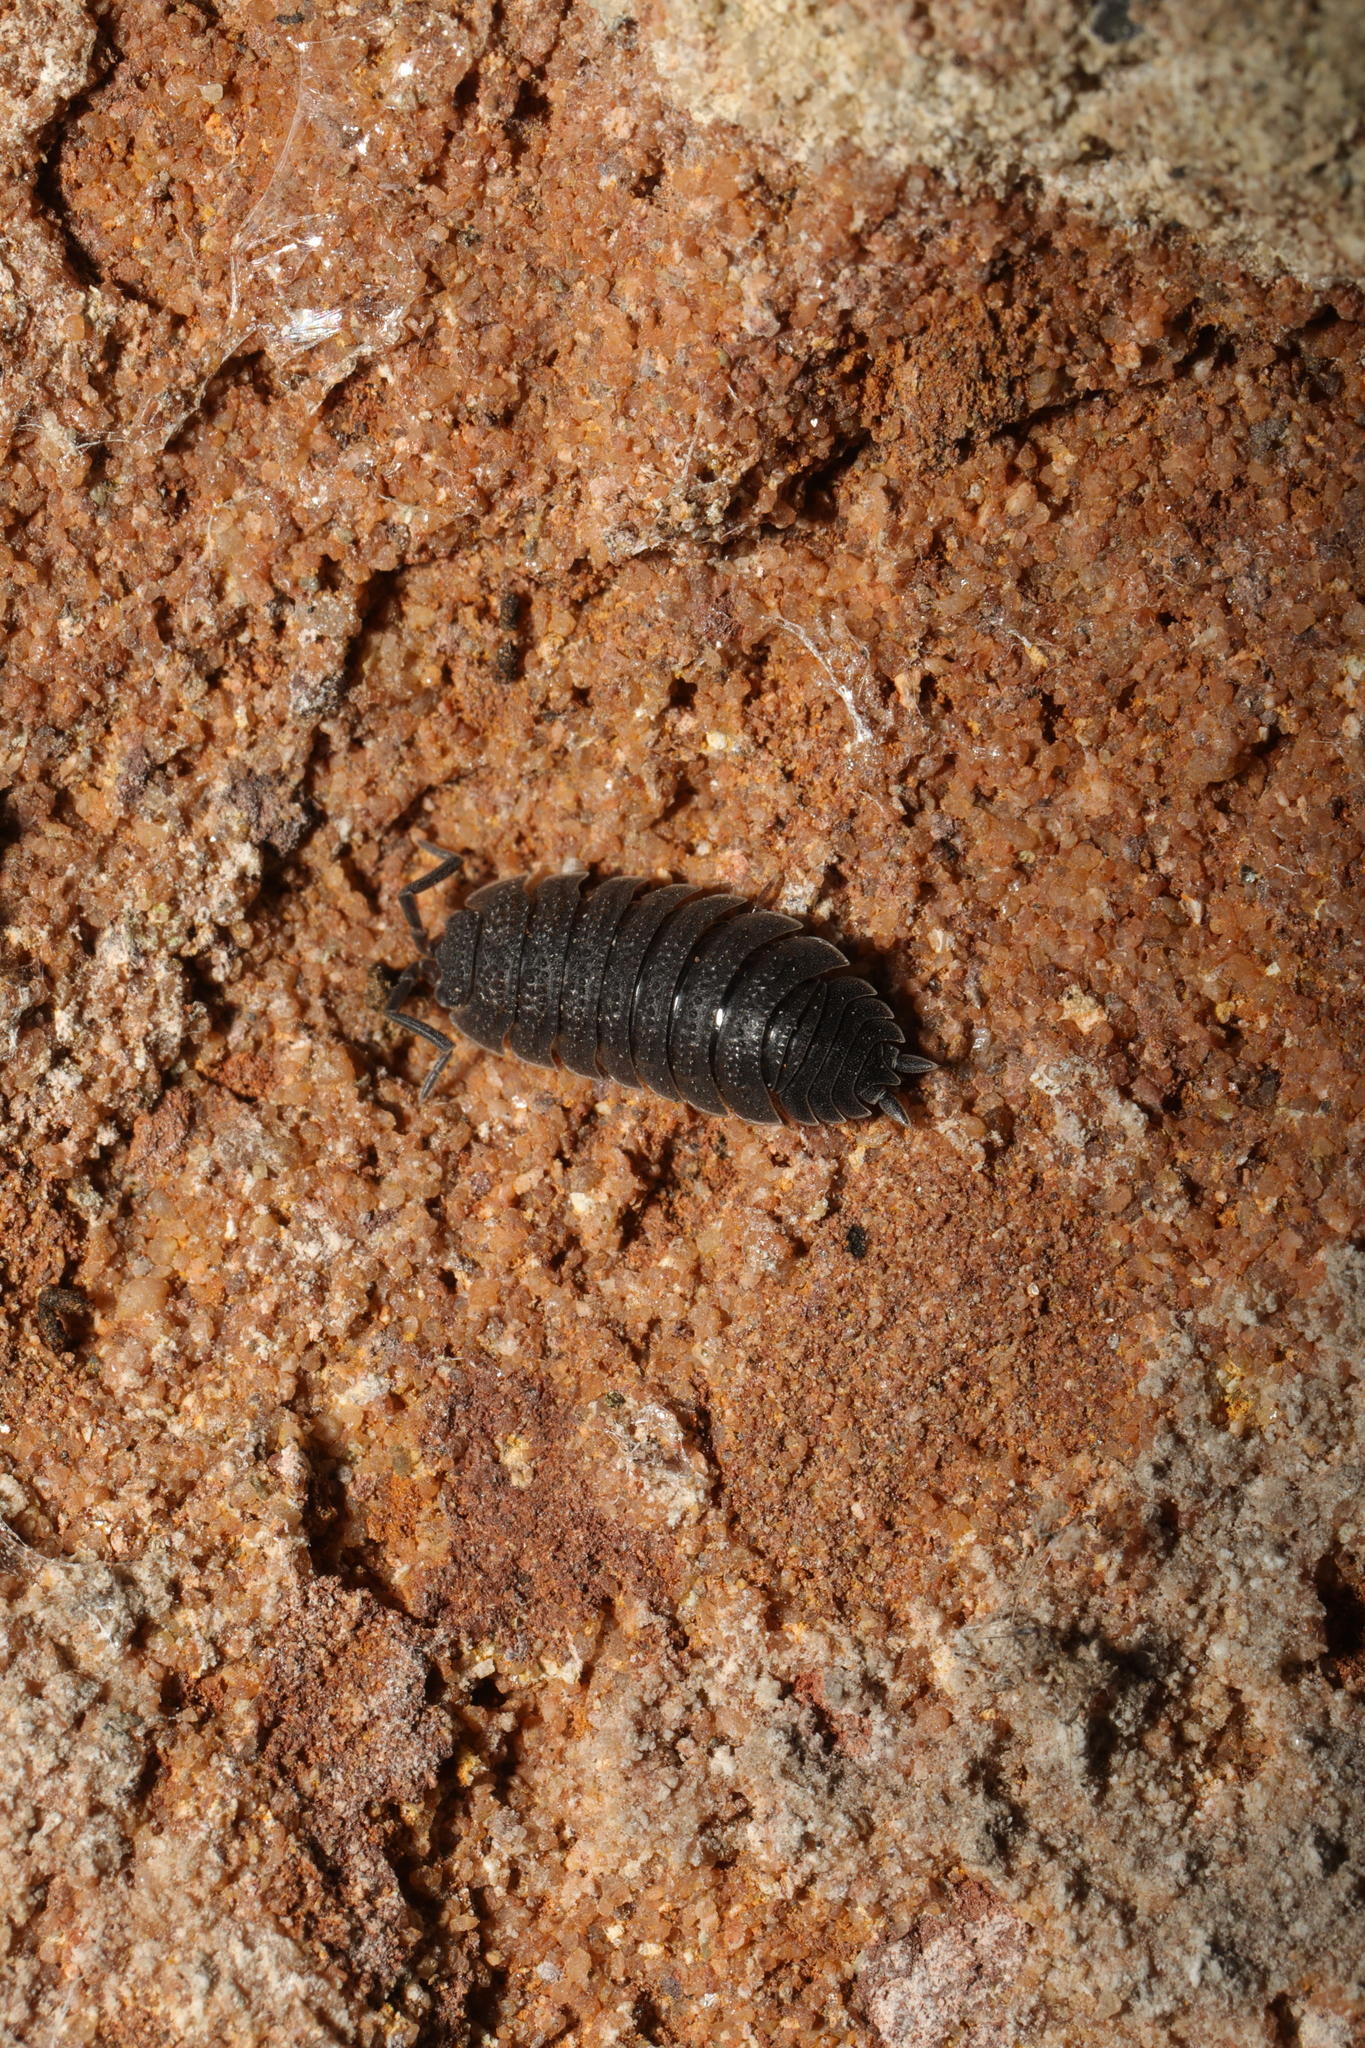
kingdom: Animalia
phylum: Arthropoda
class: Malacostraca
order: Isopoda
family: Porcellionidae
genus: Porcellio
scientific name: Porcellio scaber
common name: Common rough woodlouse
